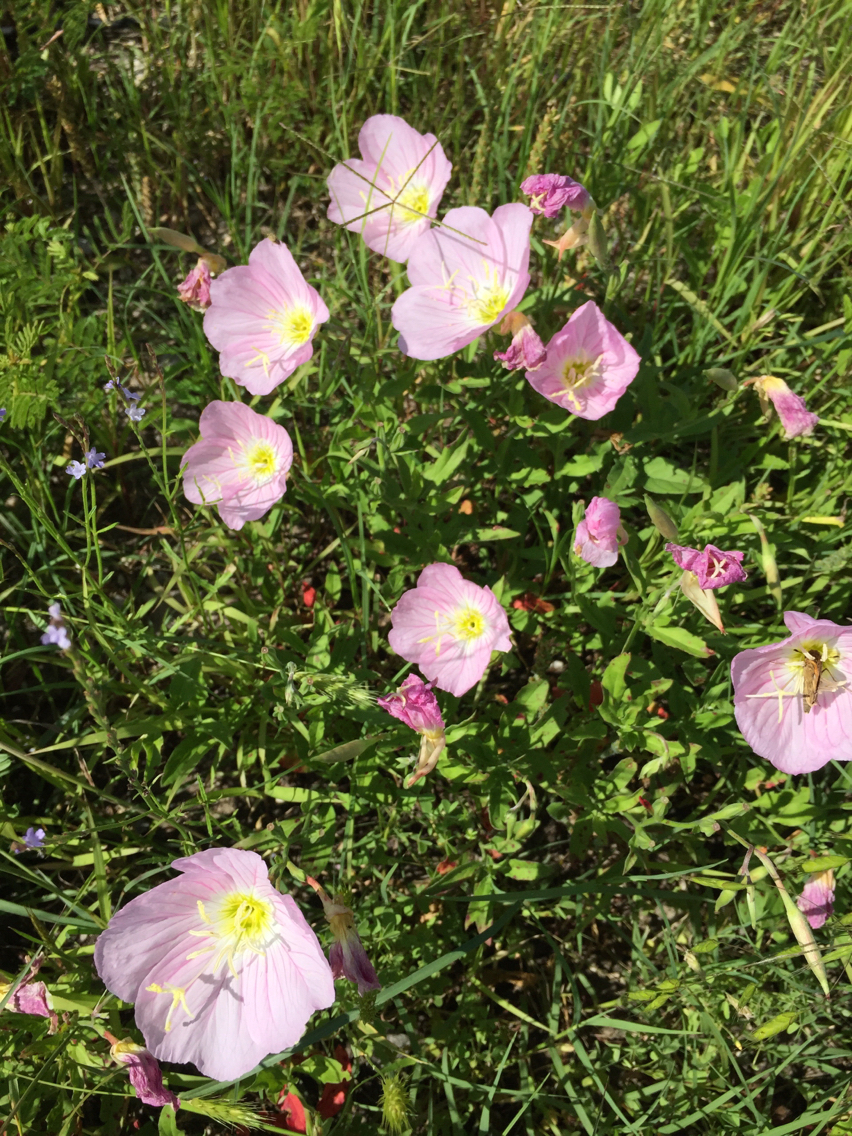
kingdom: Plantae
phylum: Tracheophyta
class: Magnoliopsida
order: Myrtales
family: Onagraceae
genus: Oenothera
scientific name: Oenothera speciosa
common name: White evening-primrose
